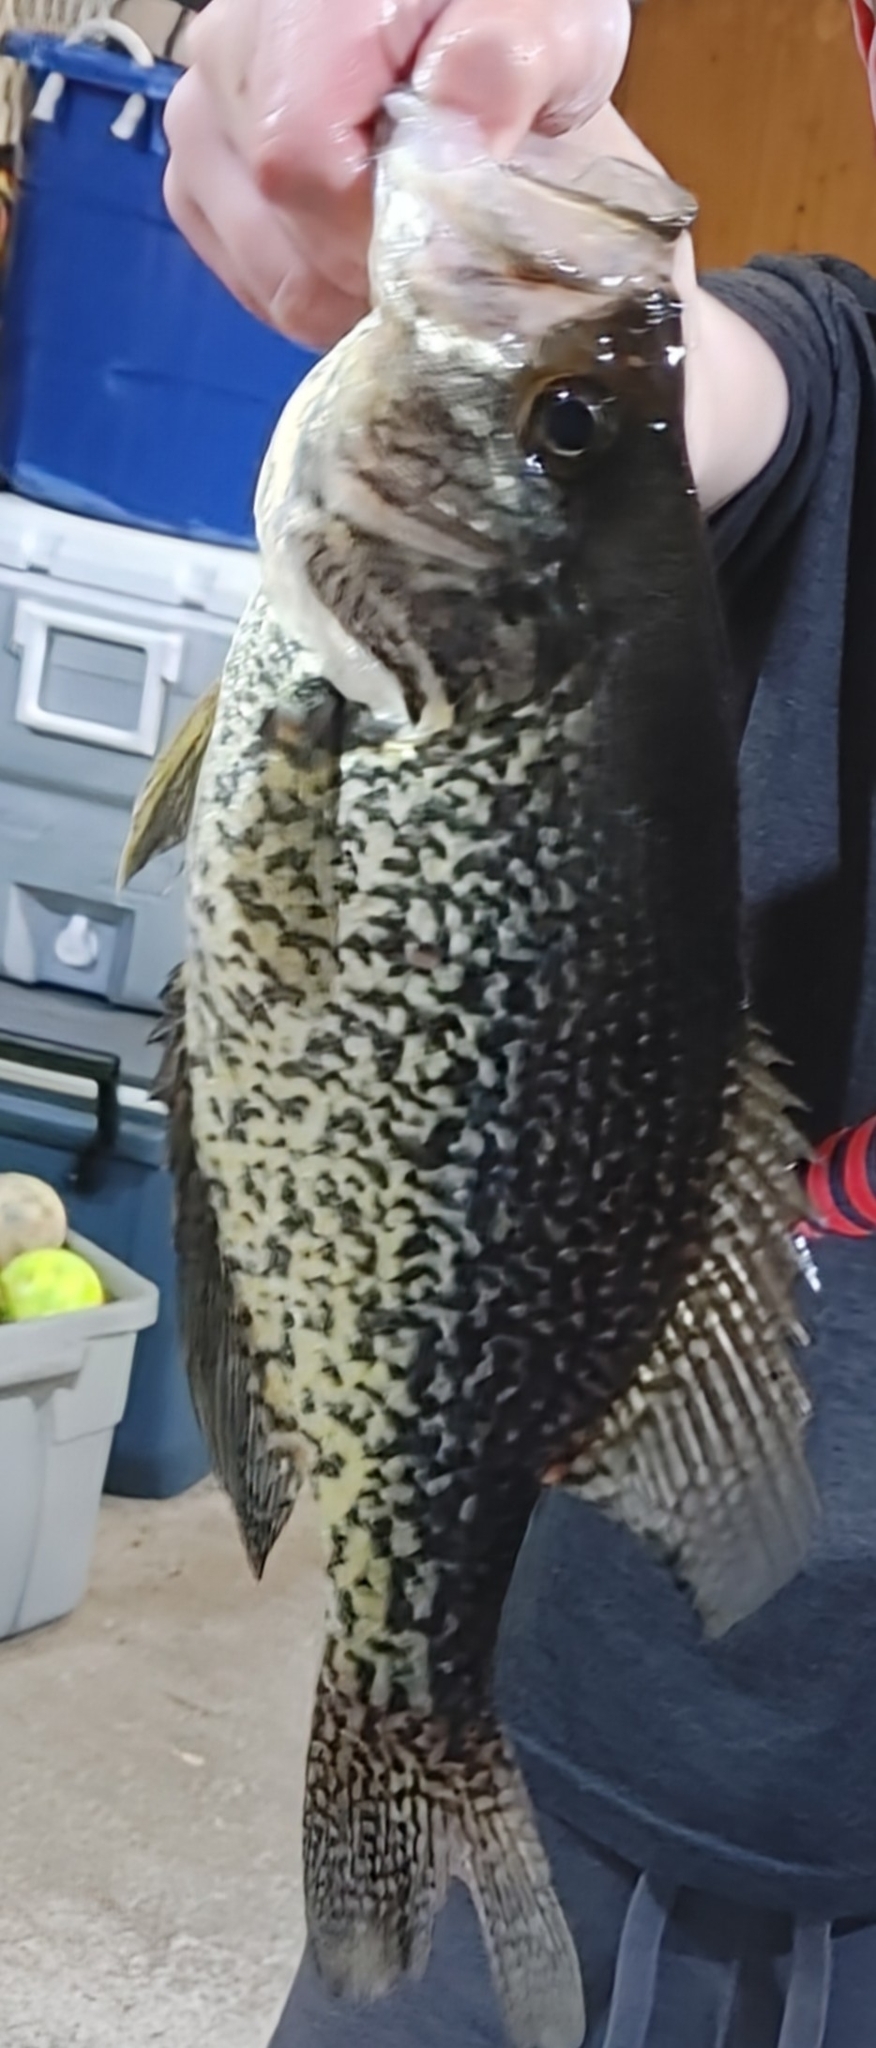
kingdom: Animalia
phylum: Chordata
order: Perciformes
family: Centrarchidae
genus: Pomoxis
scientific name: Pomoxis nigromaculatus
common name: Black crappie
